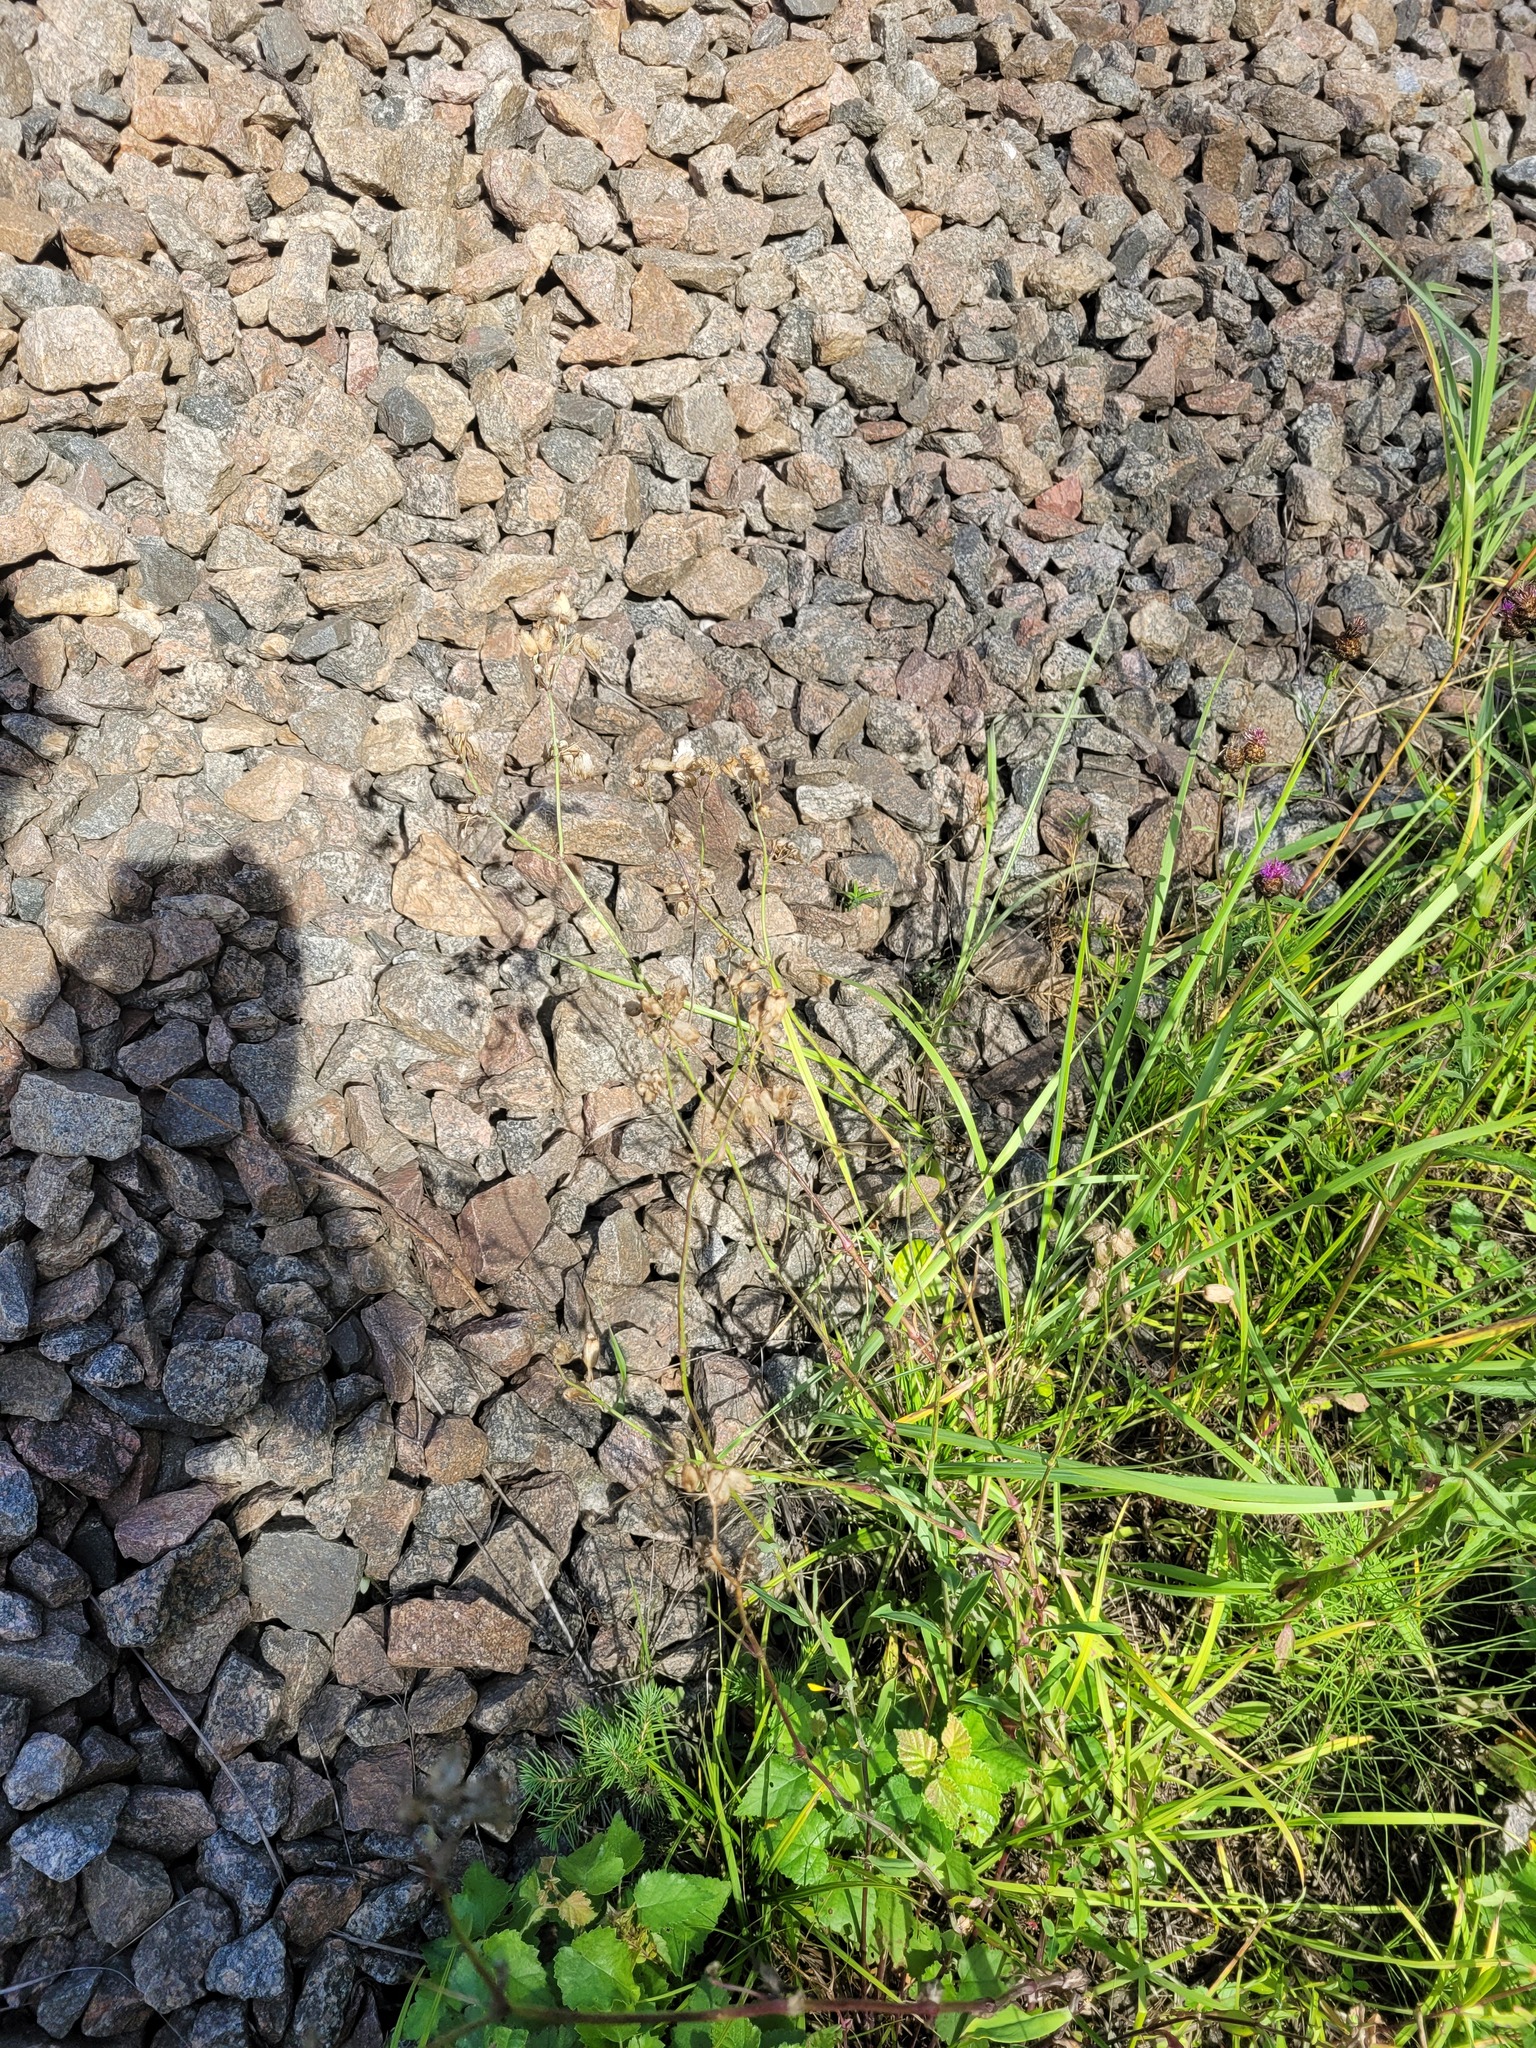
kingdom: Plantae
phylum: Tracheophyta
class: Magnoliopsida
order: Caryophyllales
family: Caryophyllaceae
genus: Silene
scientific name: Silene vulgaris
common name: Bladder campion
